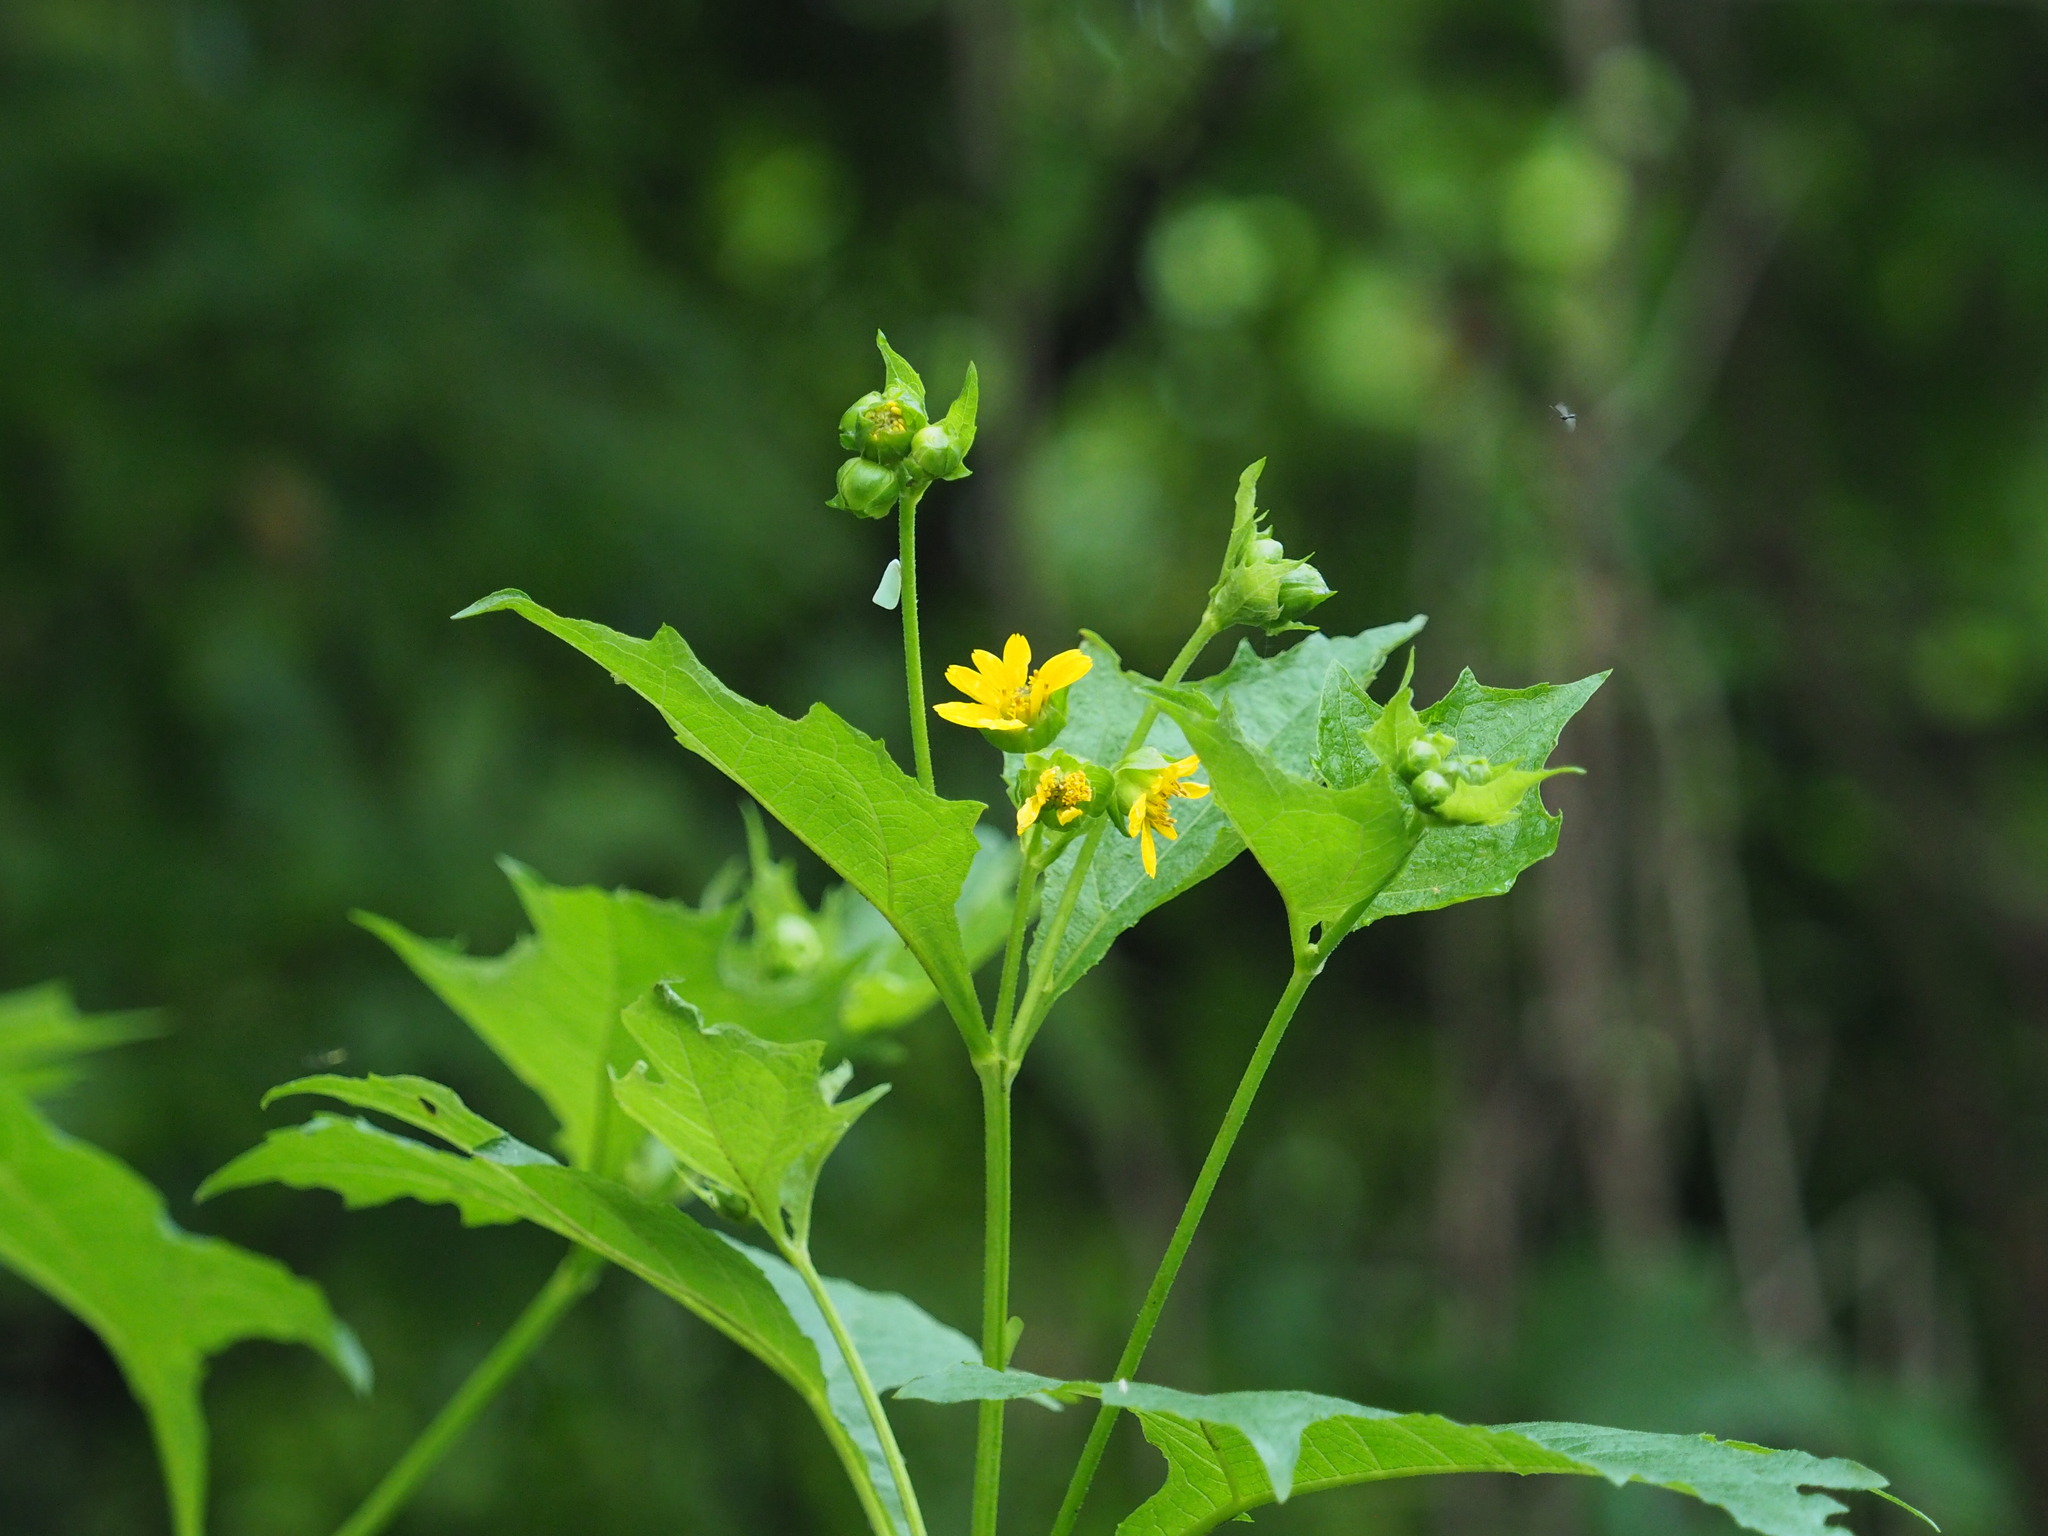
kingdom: Plantae
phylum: Tracheophyta
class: Magnoliopsida
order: Asterales
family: Asteraceae
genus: Smallanthus
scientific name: Smallanthus uvedalia
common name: Bear's-foot
